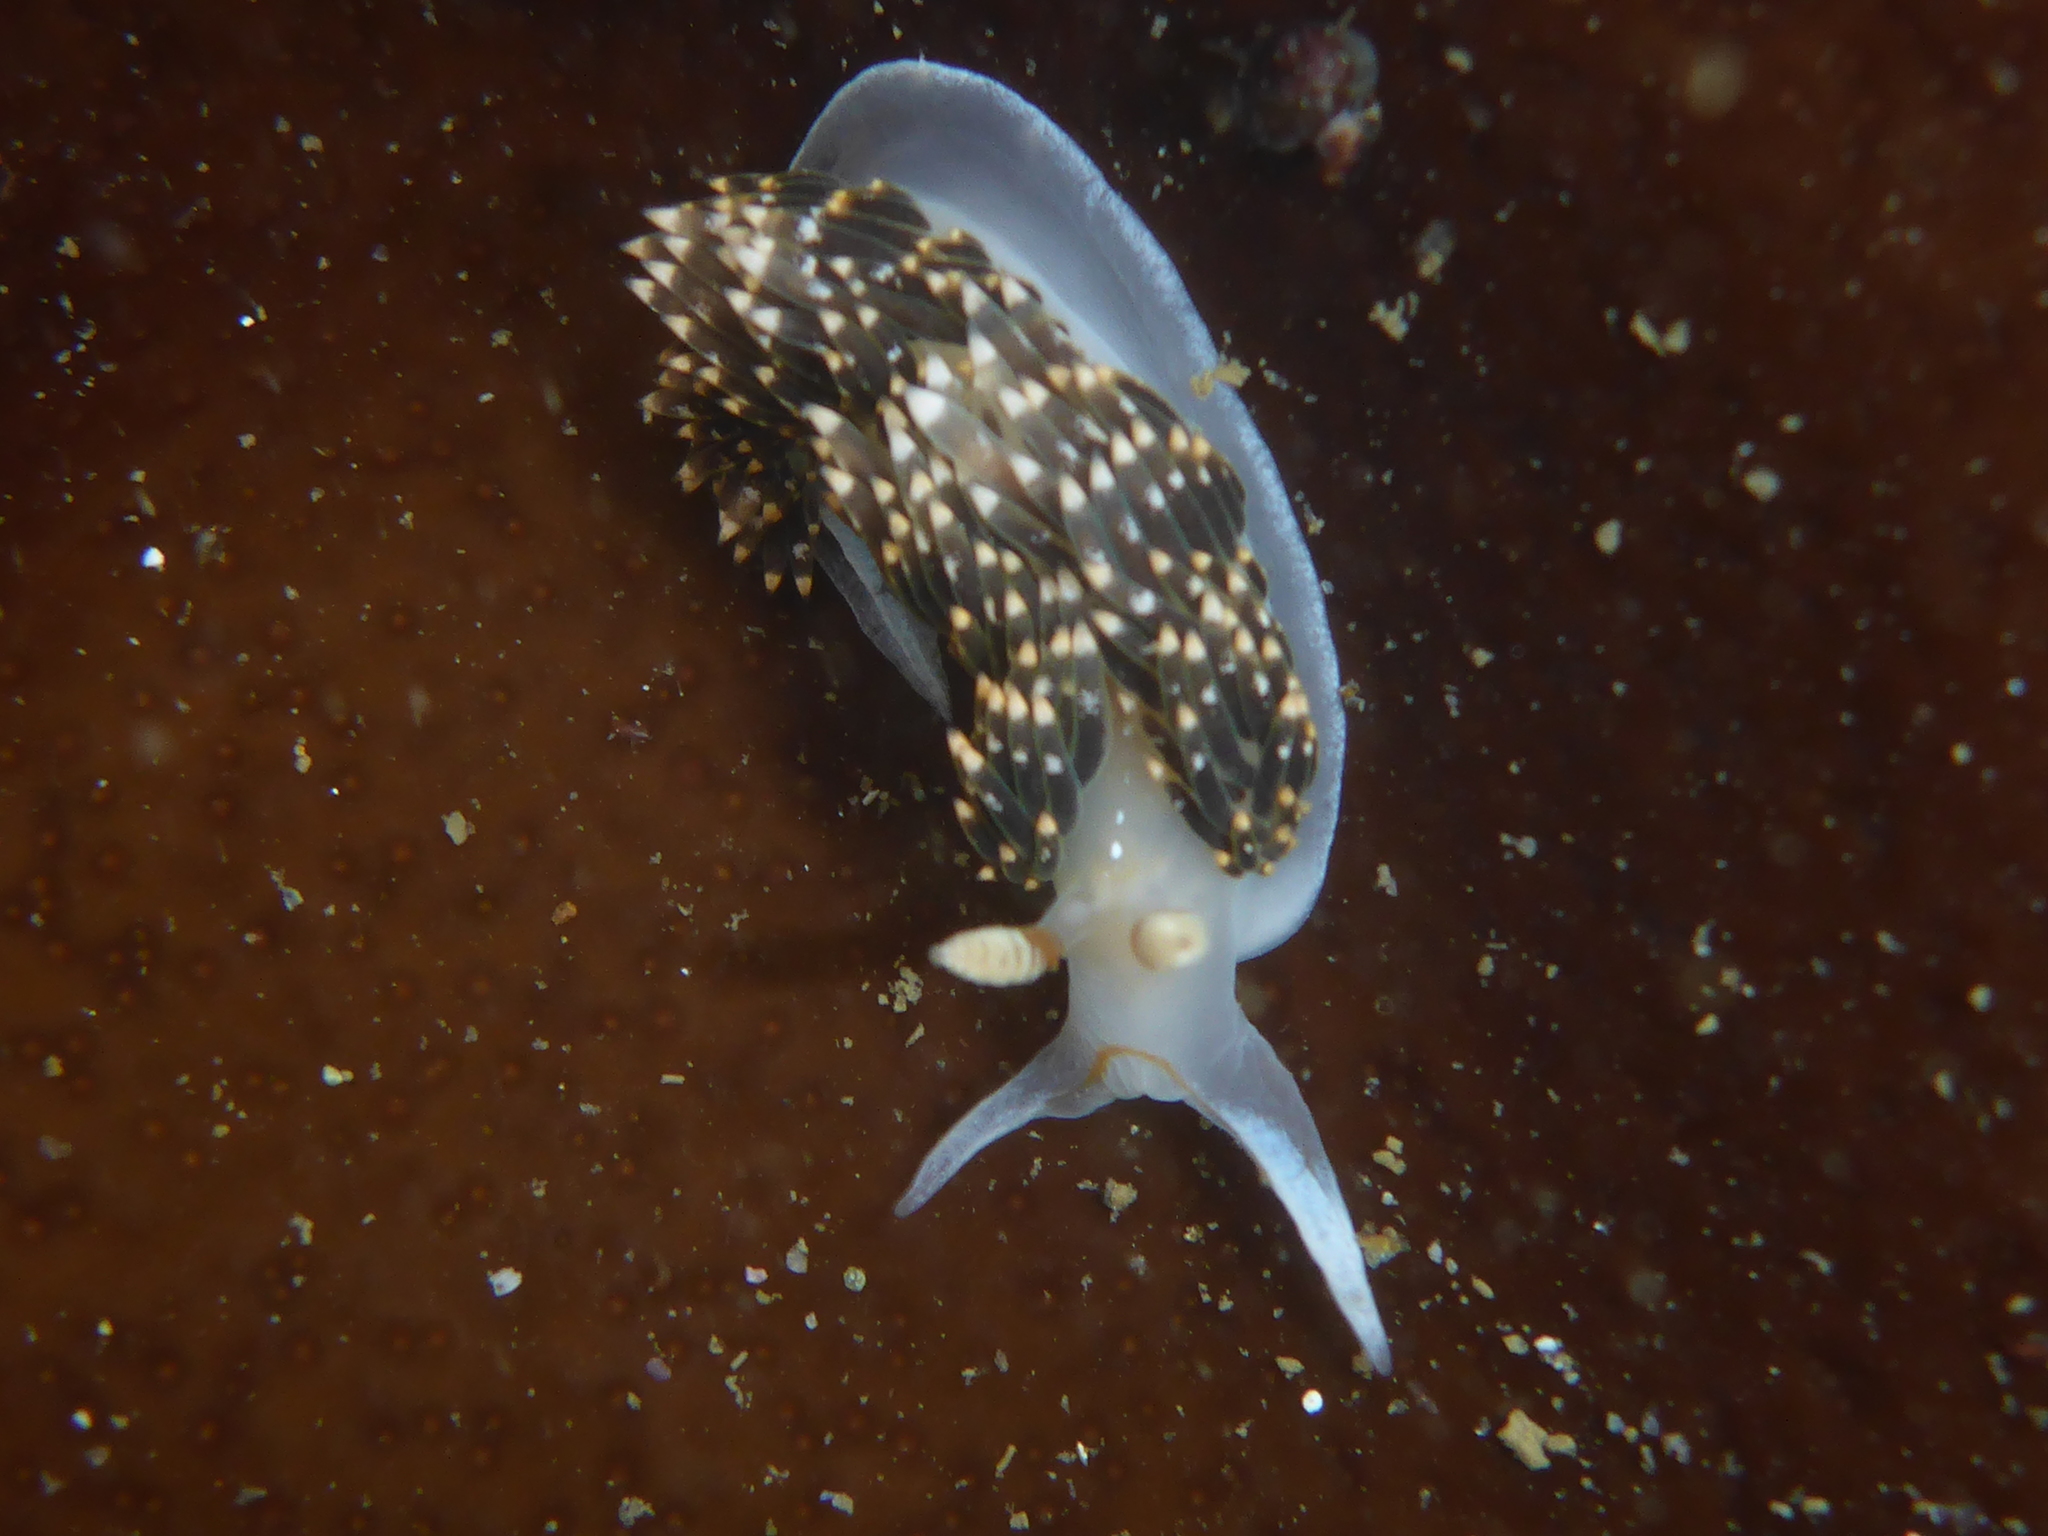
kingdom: Animalia
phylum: Mollusca
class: Gastropoda
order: Nudibranchia
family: Facelinidae
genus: Phidiana
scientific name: Phidiana hiltoni
